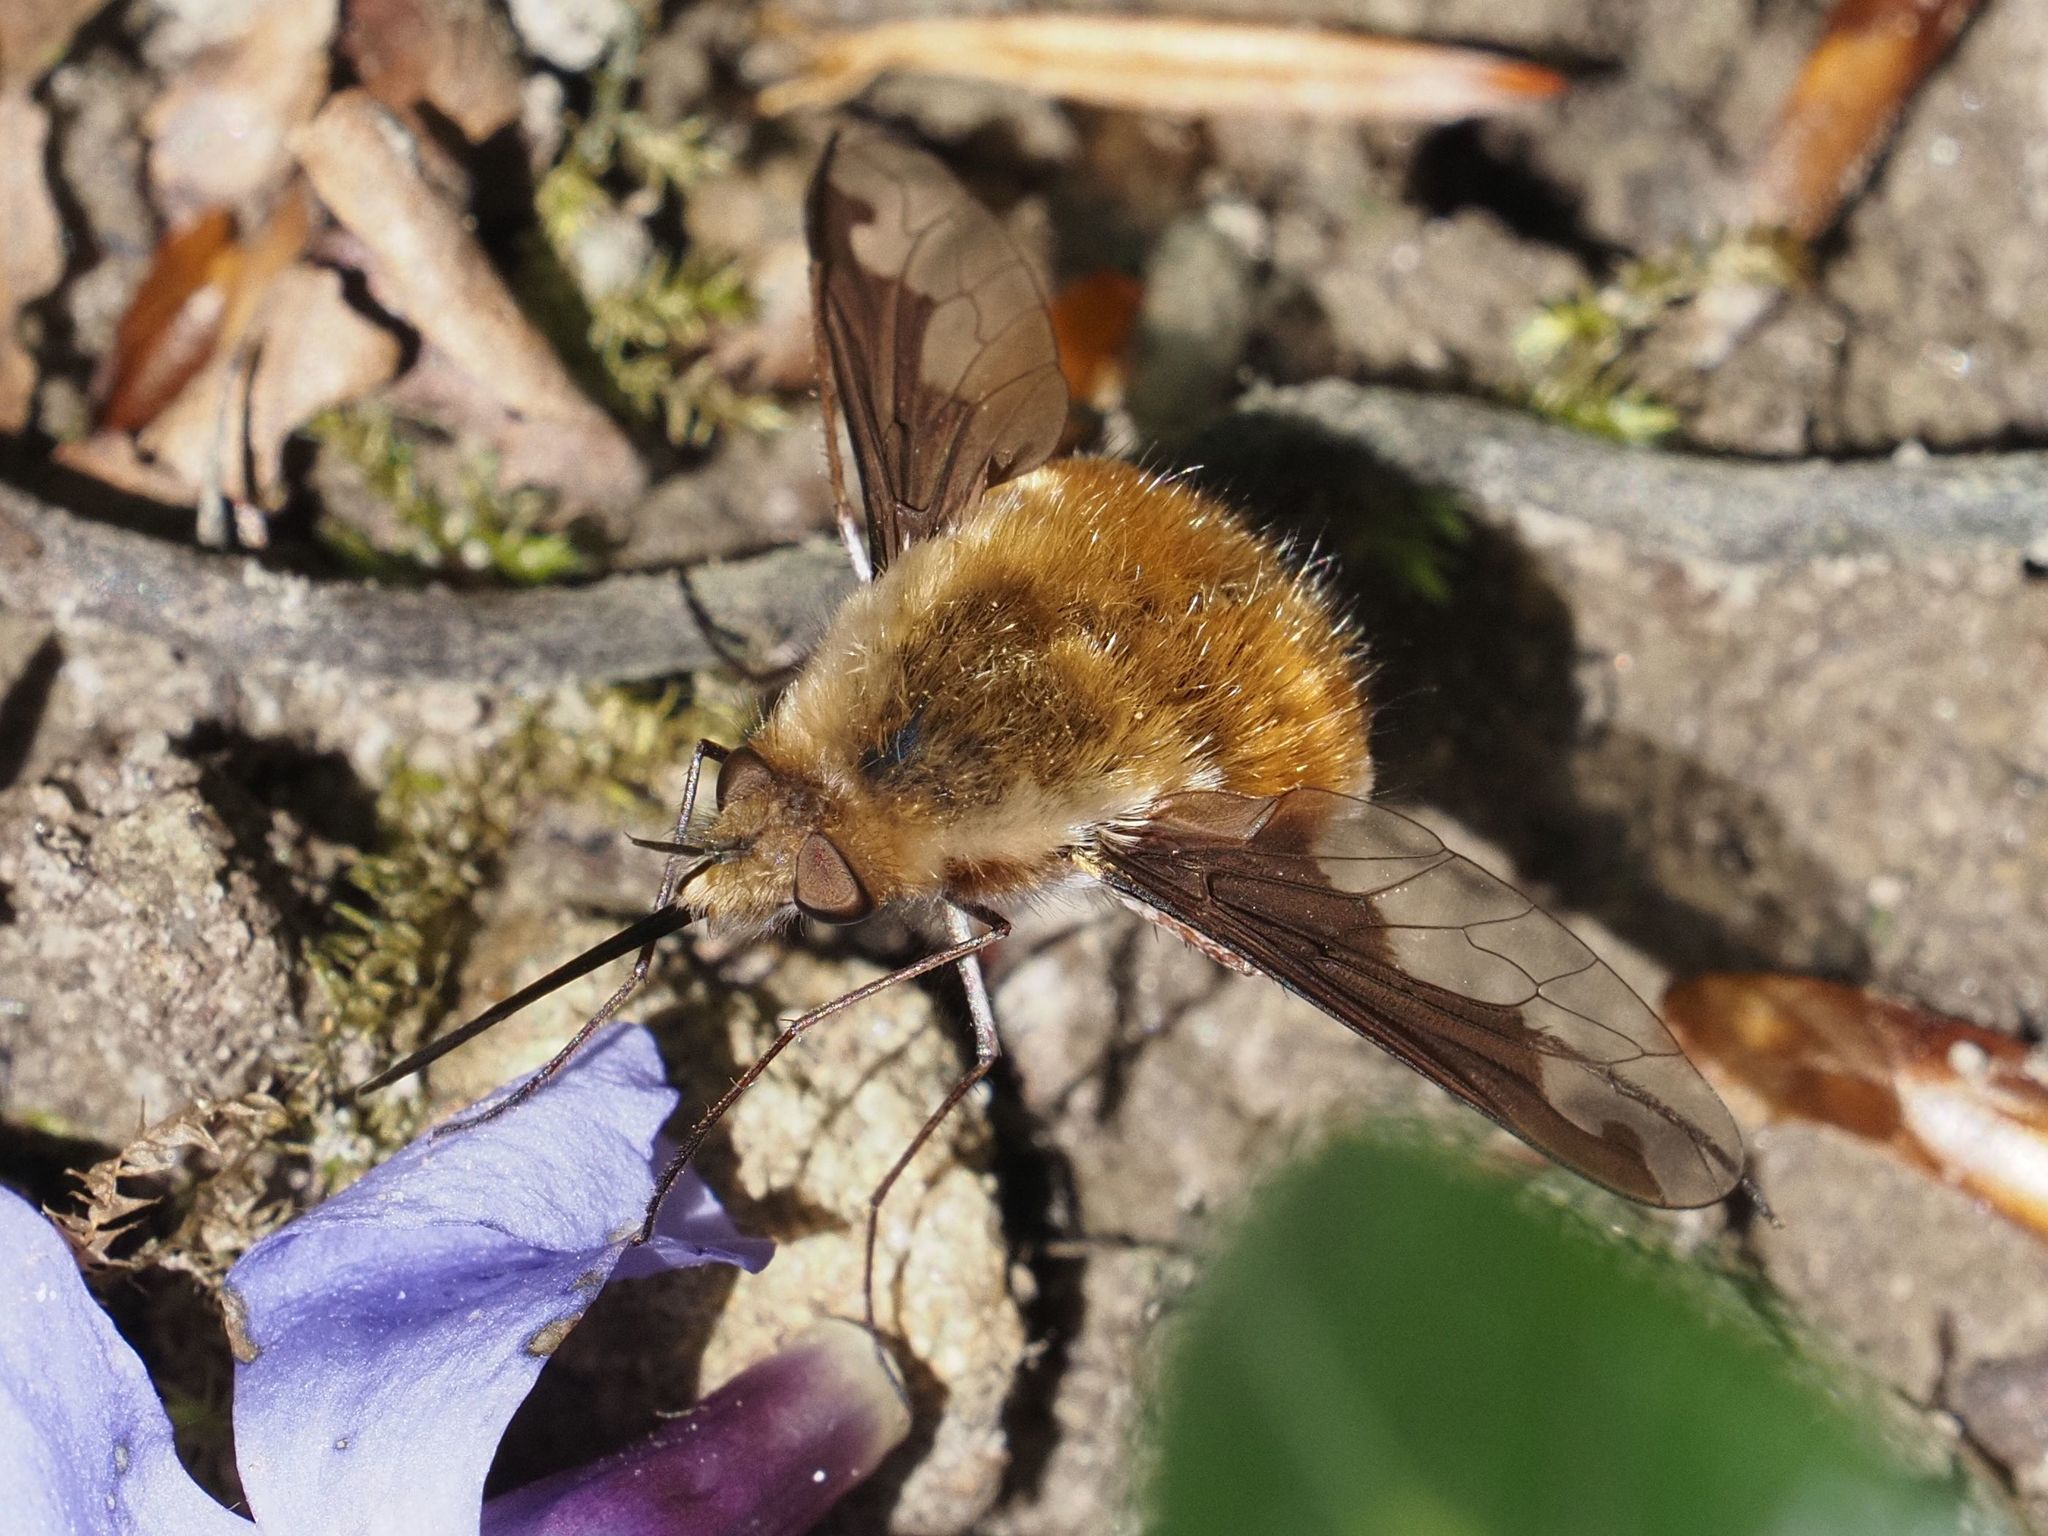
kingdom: Animalia
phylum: Arthropoda
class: Insecta
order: Diptera
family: Bombyliidae
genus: Bombylius
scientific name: Bombylius major
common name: Bee fly
